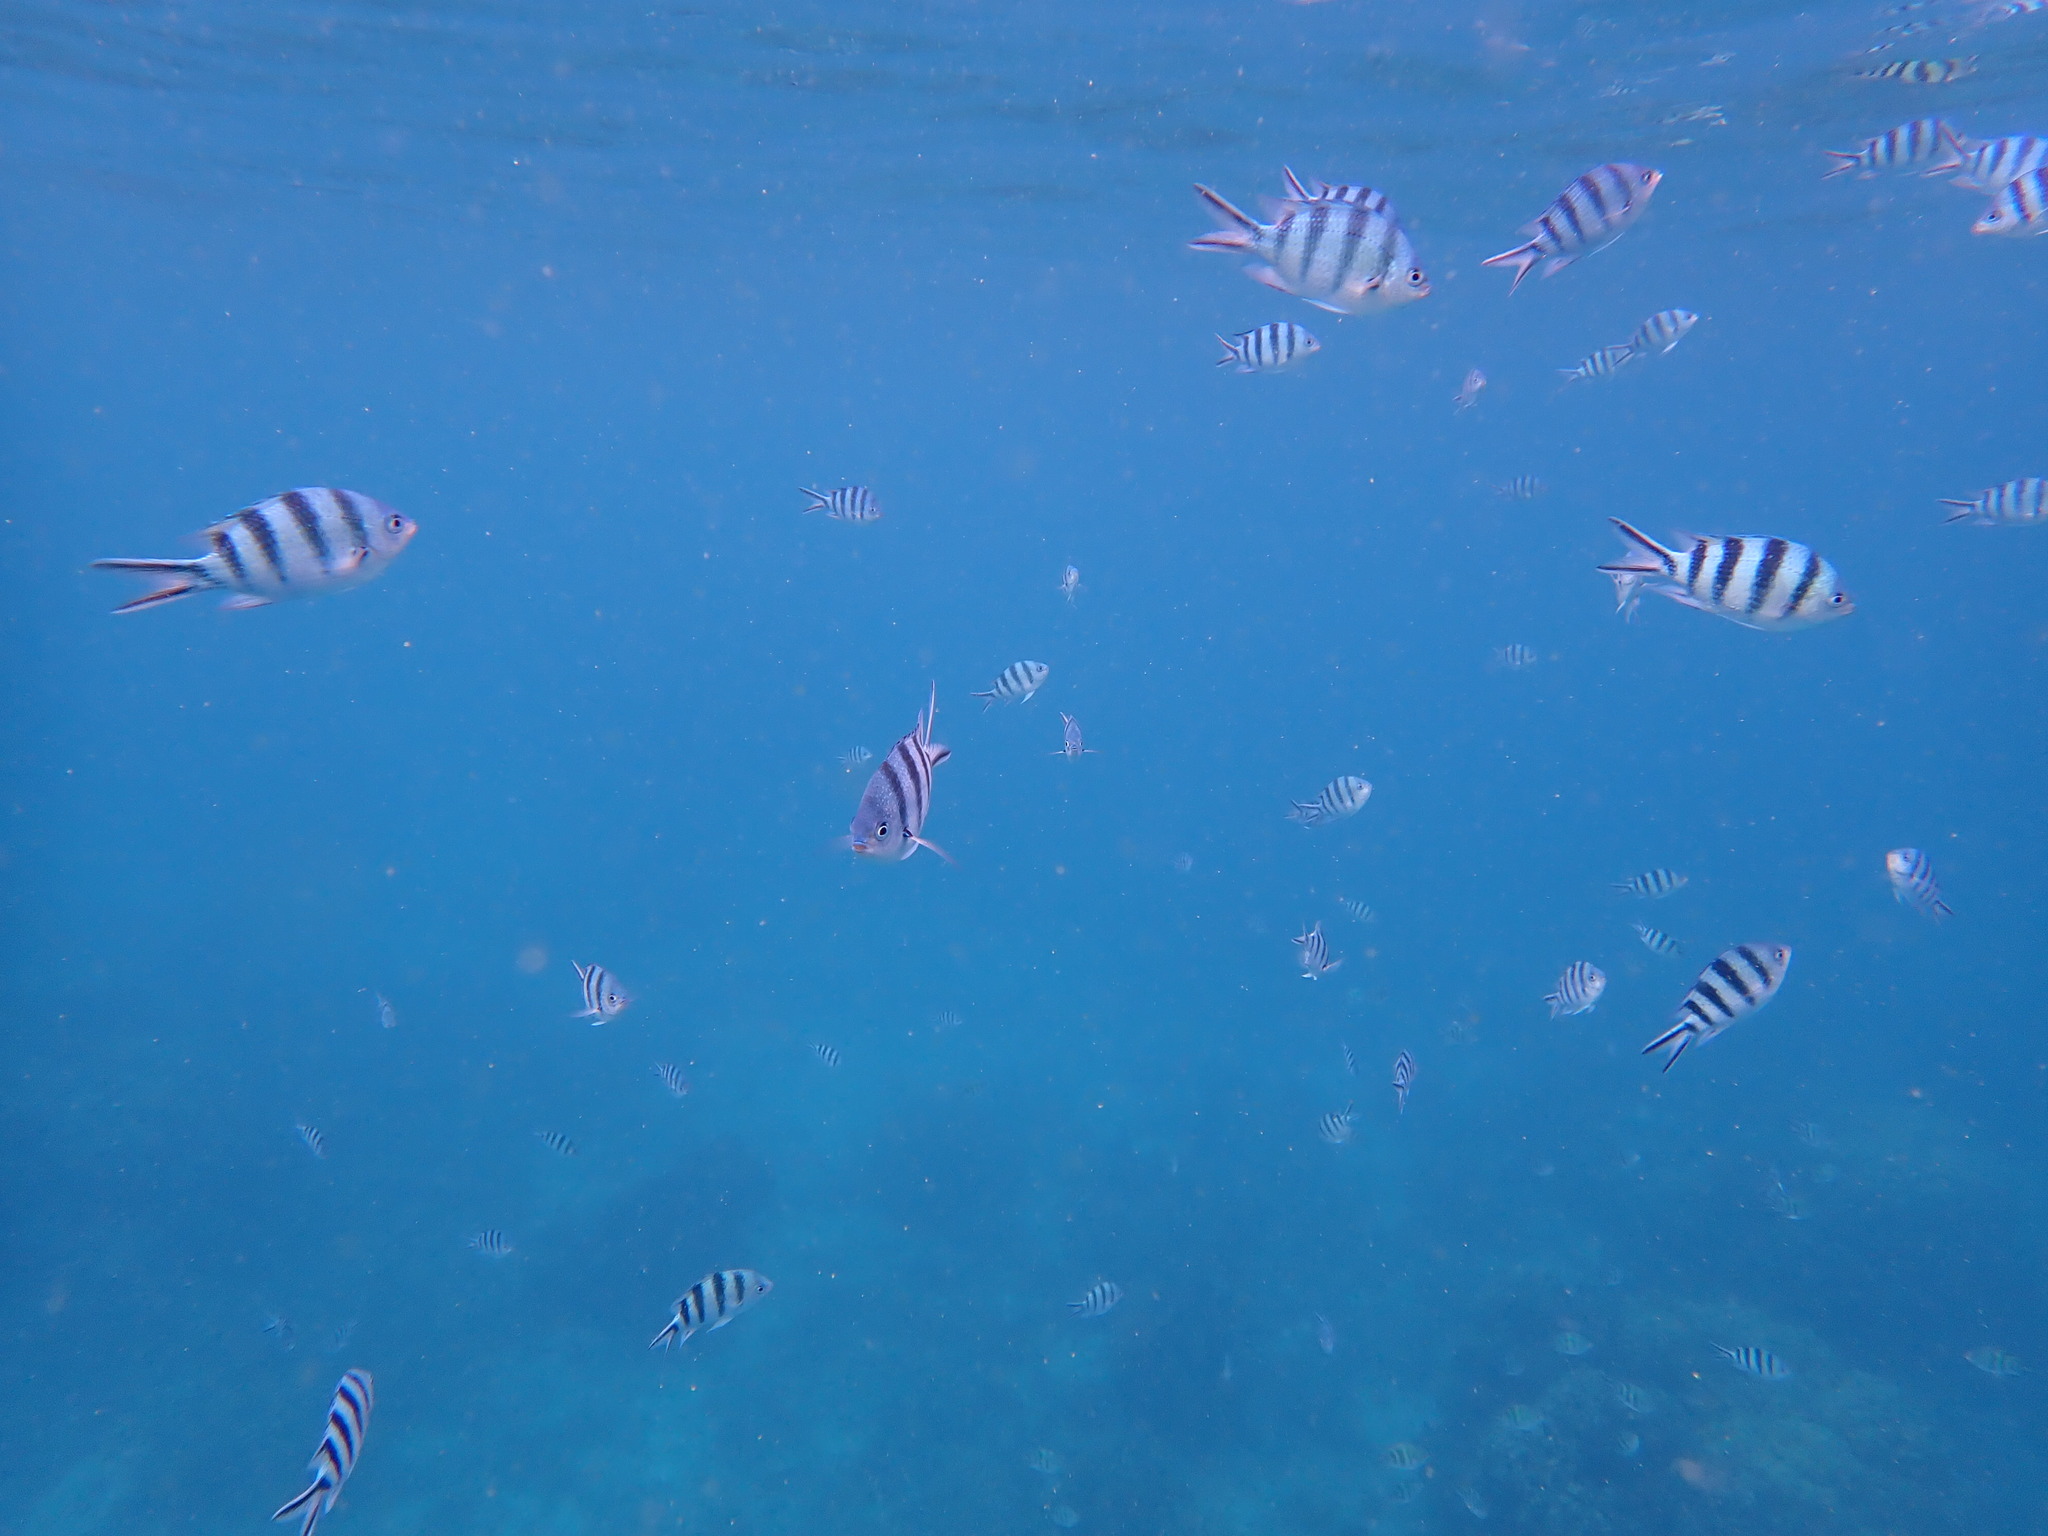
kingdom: Animalia
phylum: Chordata
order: Perciformes
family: Pomacentridae
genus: Abudefduf
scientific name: Abudefduf sexfasciatus
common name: Scissortail sergeant
